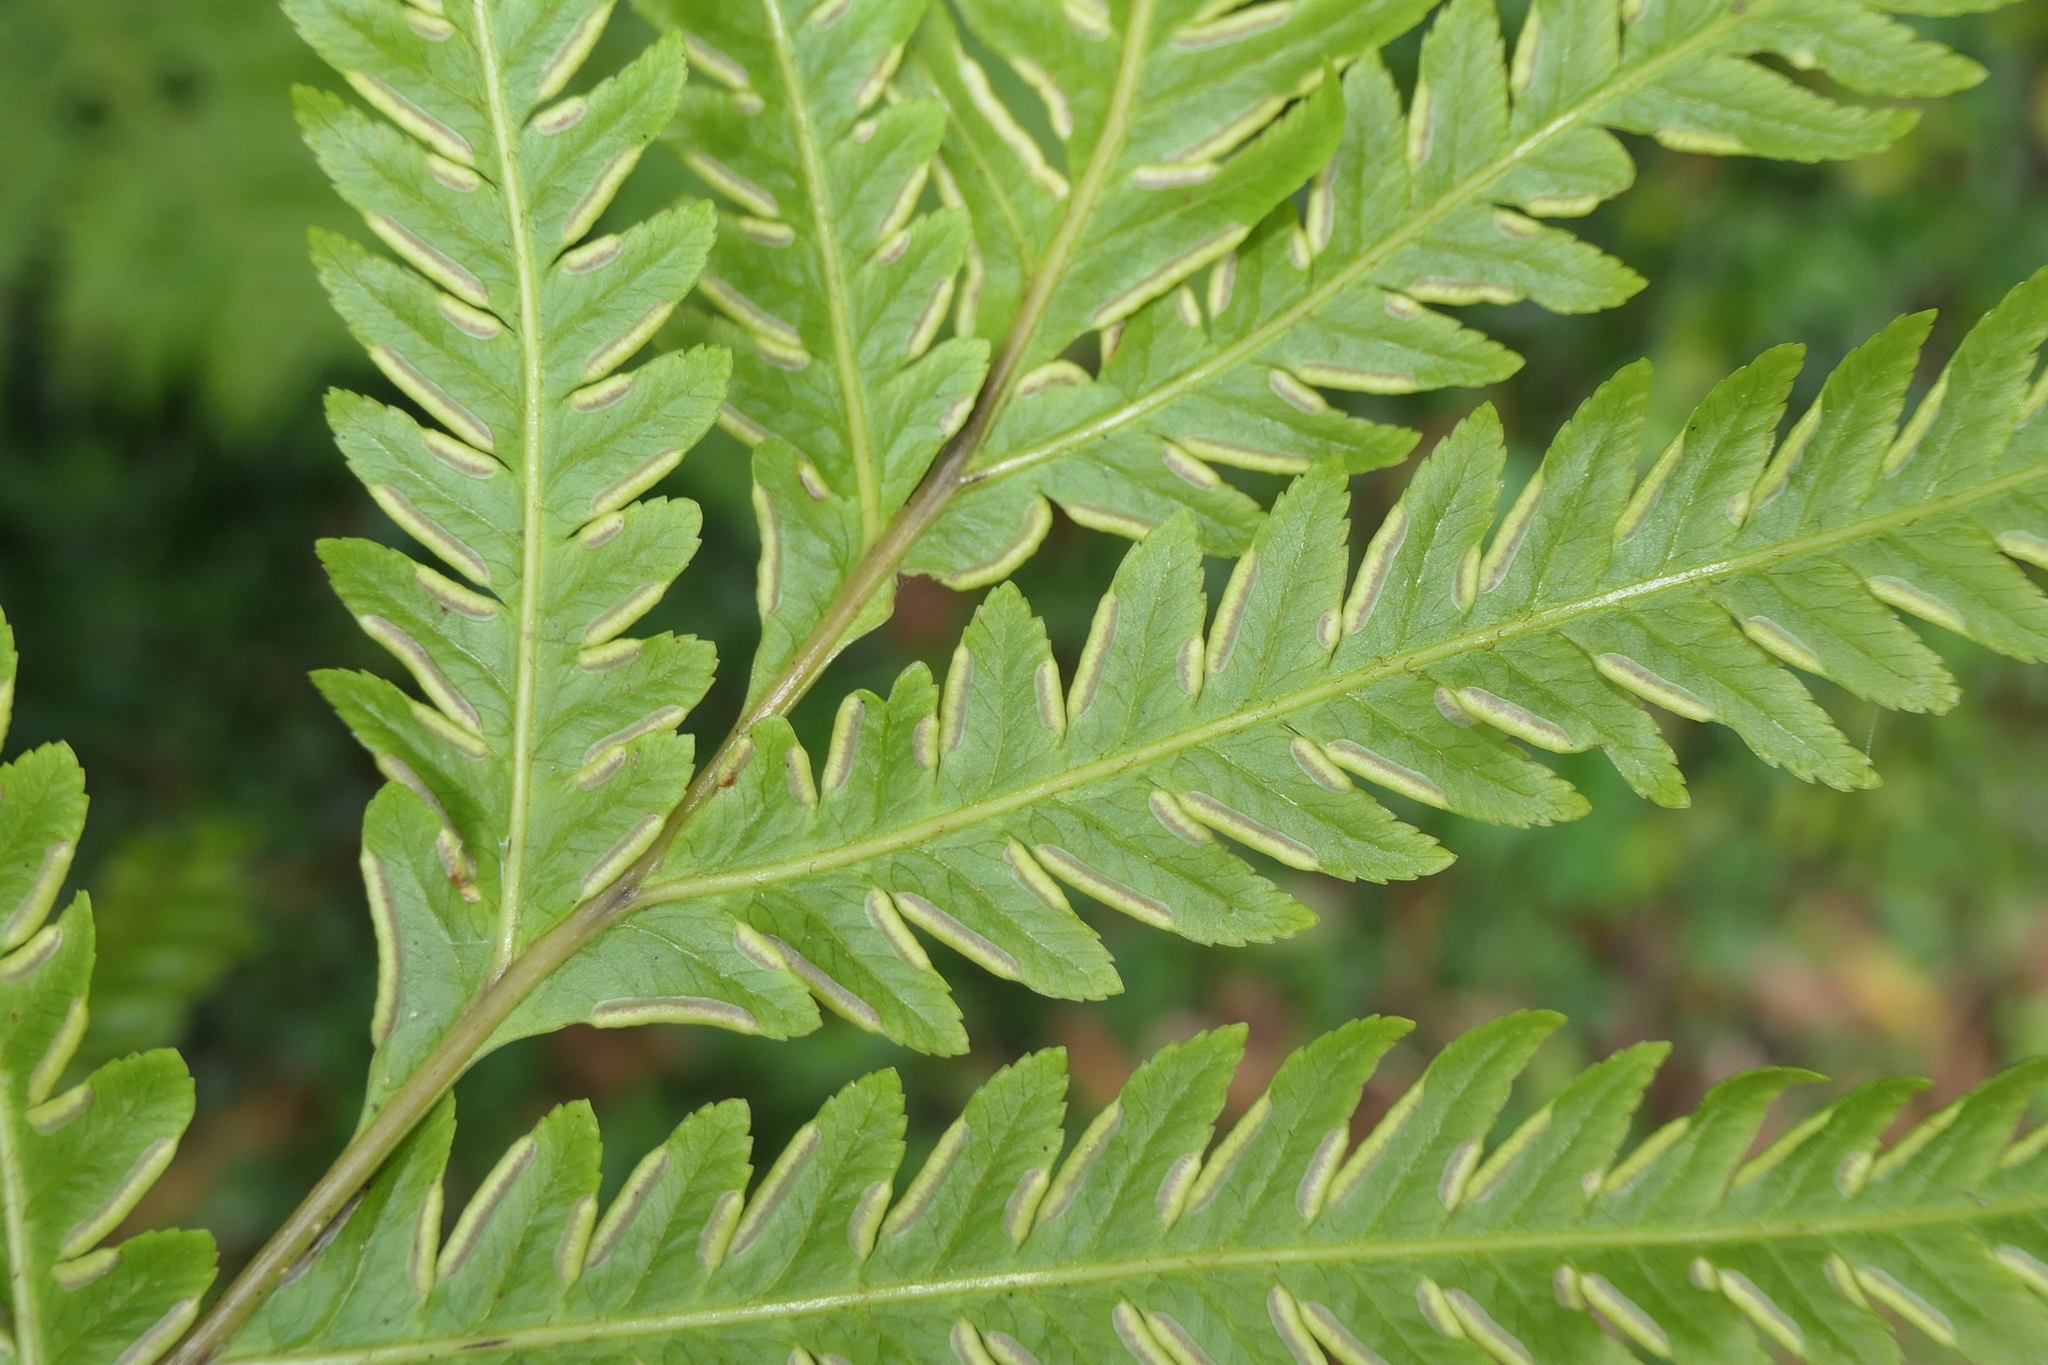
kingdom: Plantae
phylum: Tracheophyta
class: Polypodiopsida
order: Polypodiales
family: Pteridaceae
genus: Pteris
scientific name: Pteris incompleta
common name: Laurisilva brake
